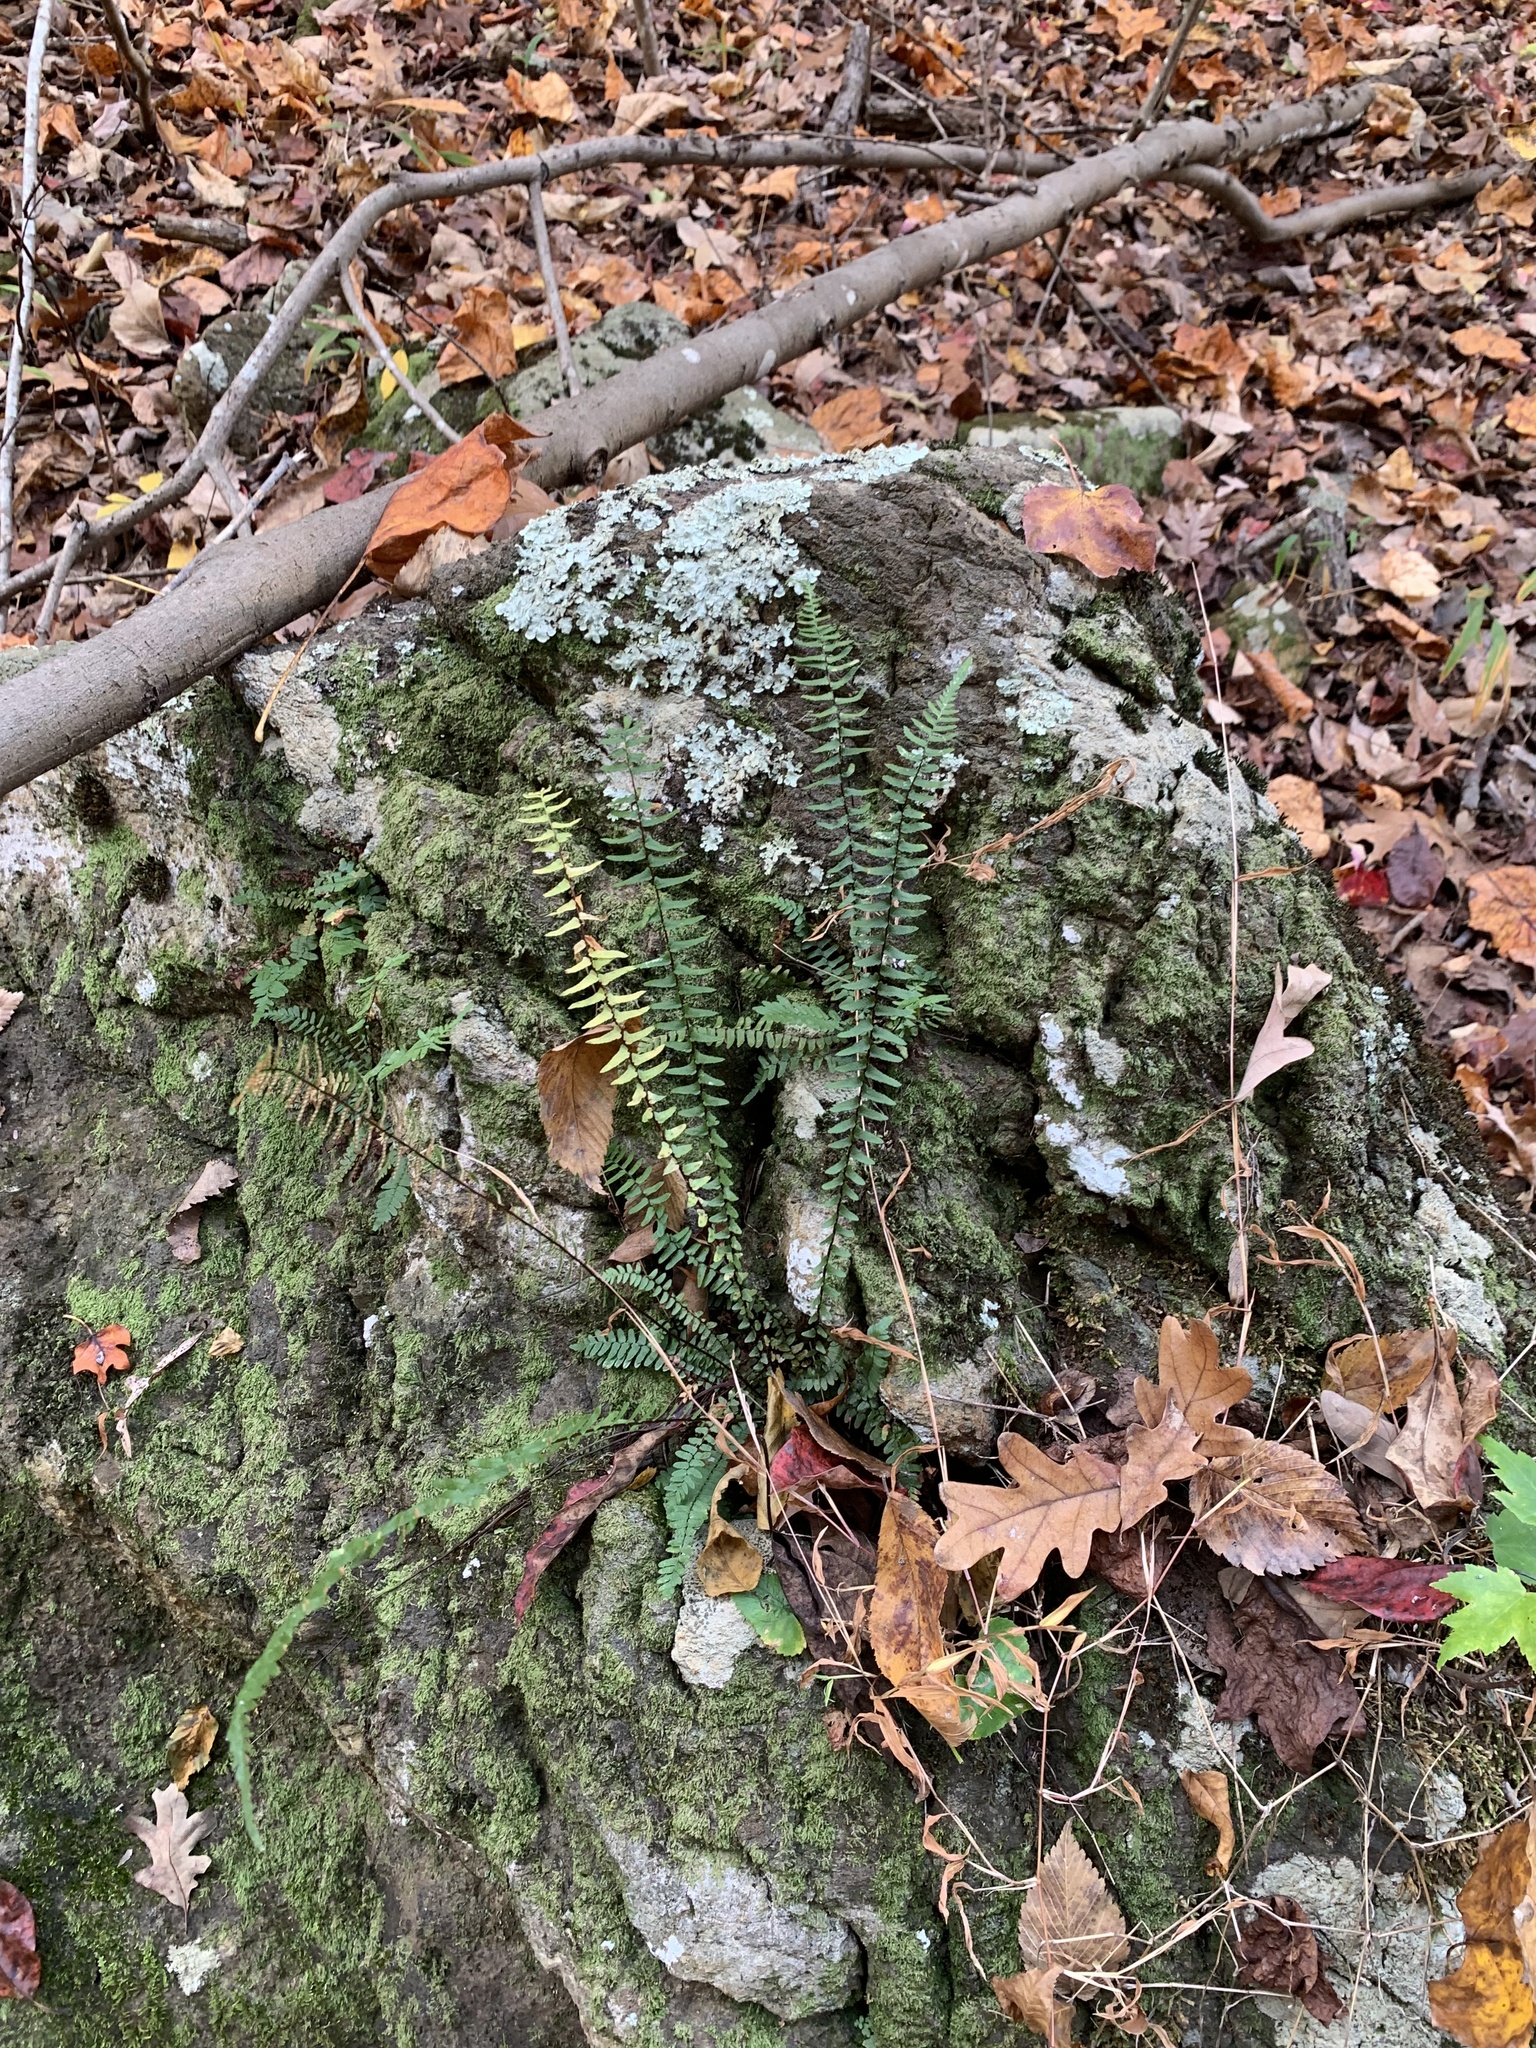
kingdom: Plantae
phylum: Tracheophyta
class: Polypodiopsida
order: Polypodiales
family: Aspleniaceae
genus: Asplenium
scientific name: Asplenium platyneuron
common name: Ebony spleenwort
